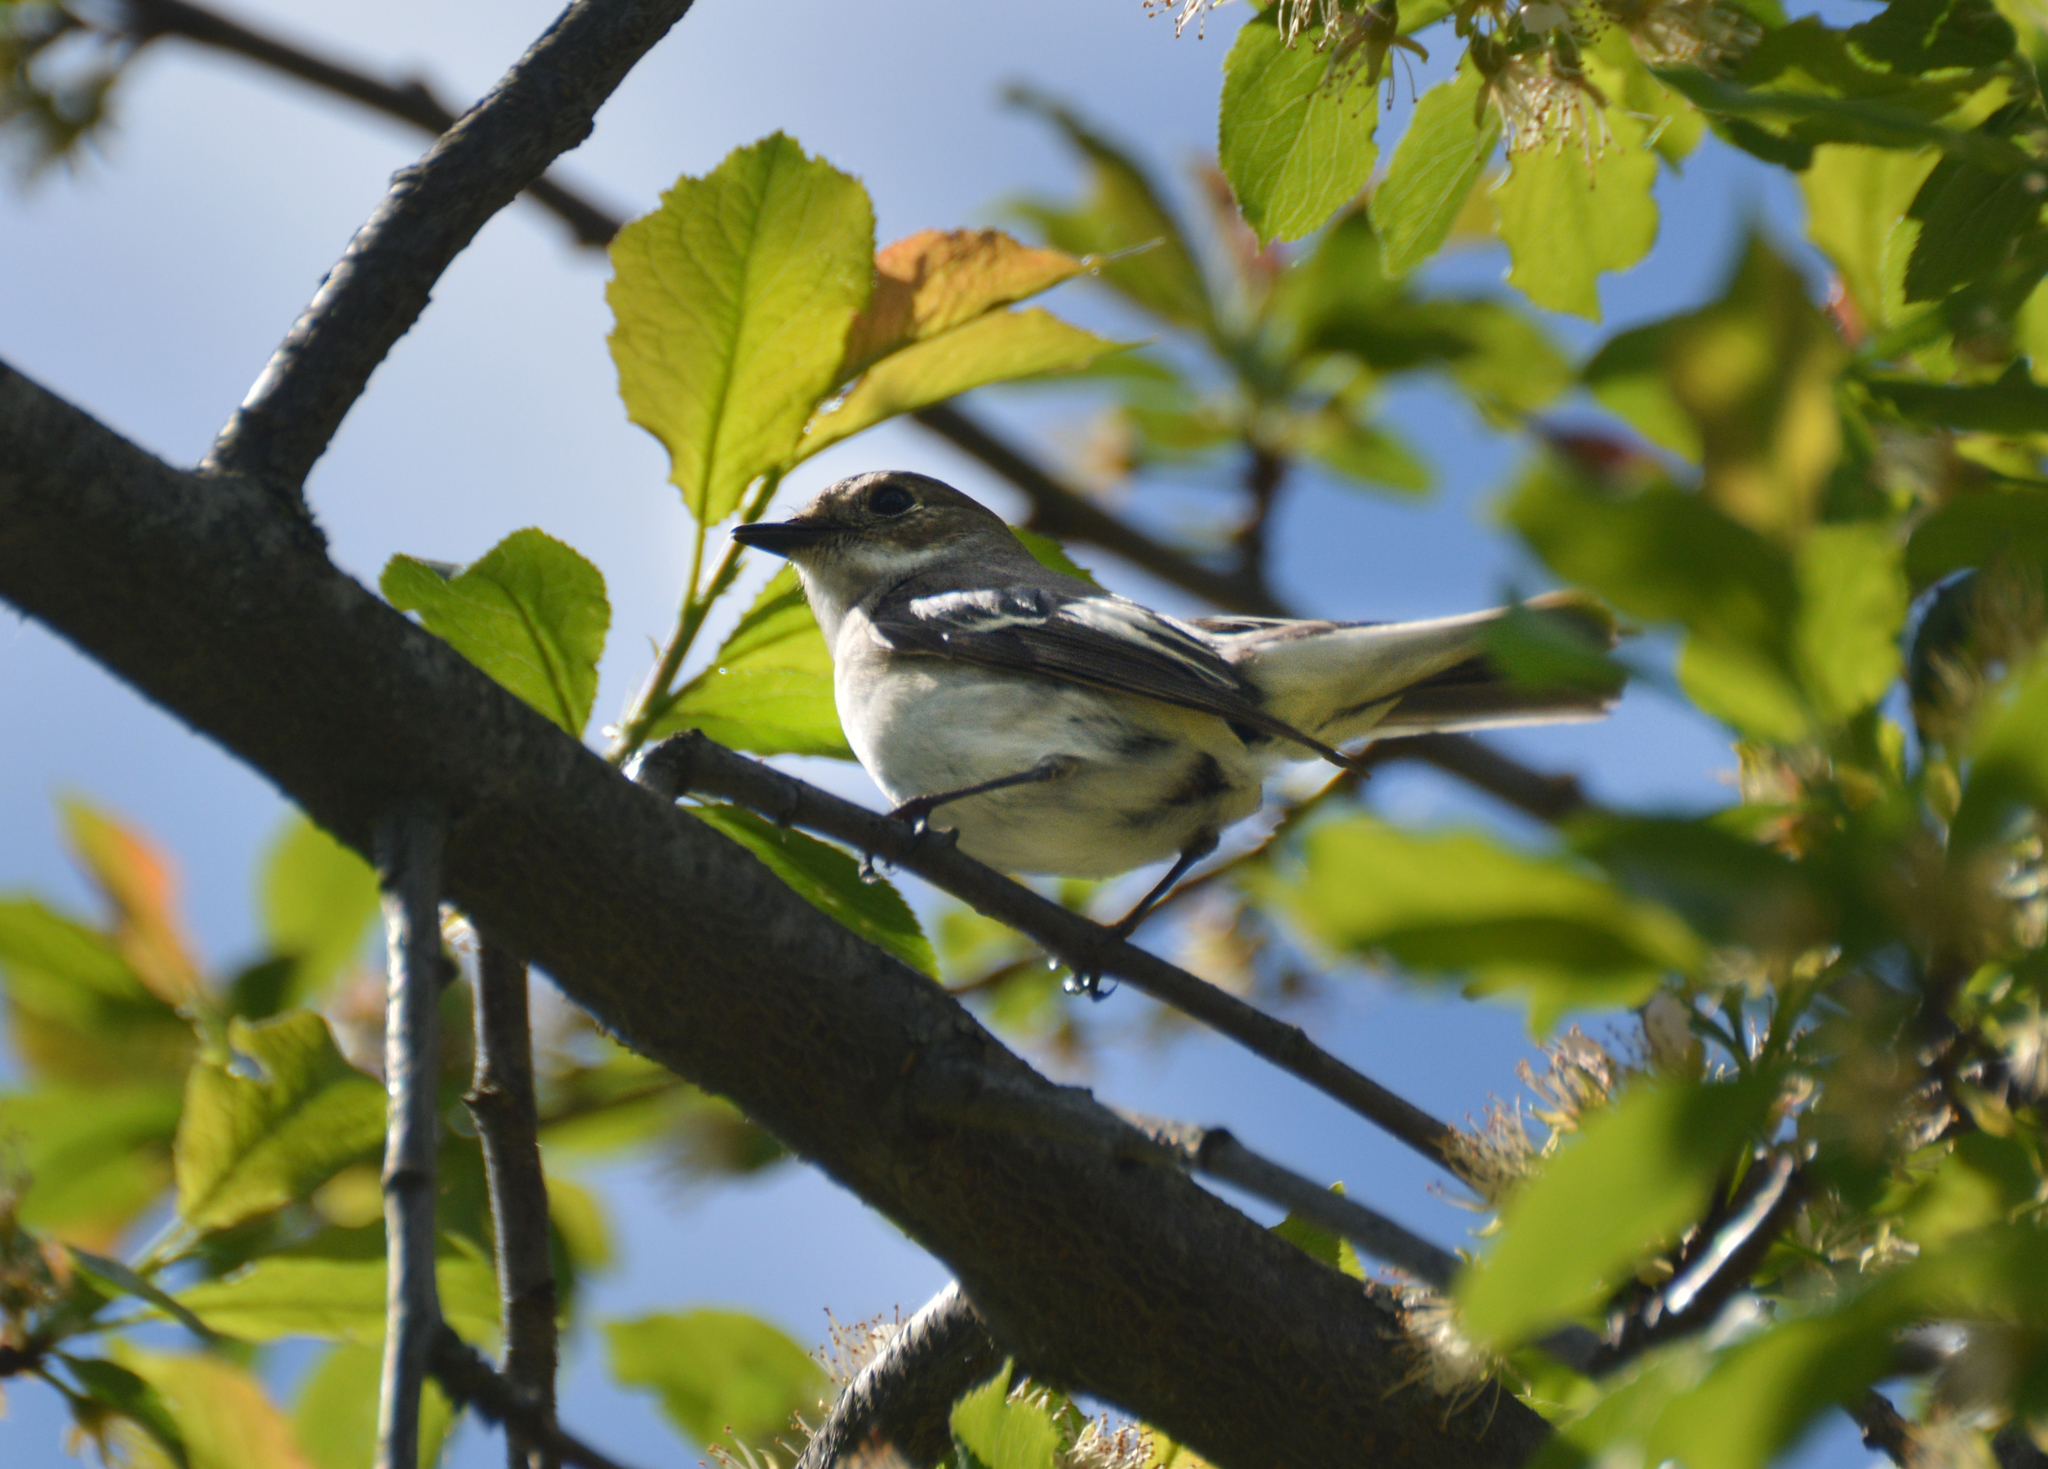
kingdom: Animalia
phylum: Chordata
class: Aves
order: Passeriformes
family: Muscicapidae
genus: Ficedula
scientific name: Ficedula hypoleuca
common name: European pied flycatcher
